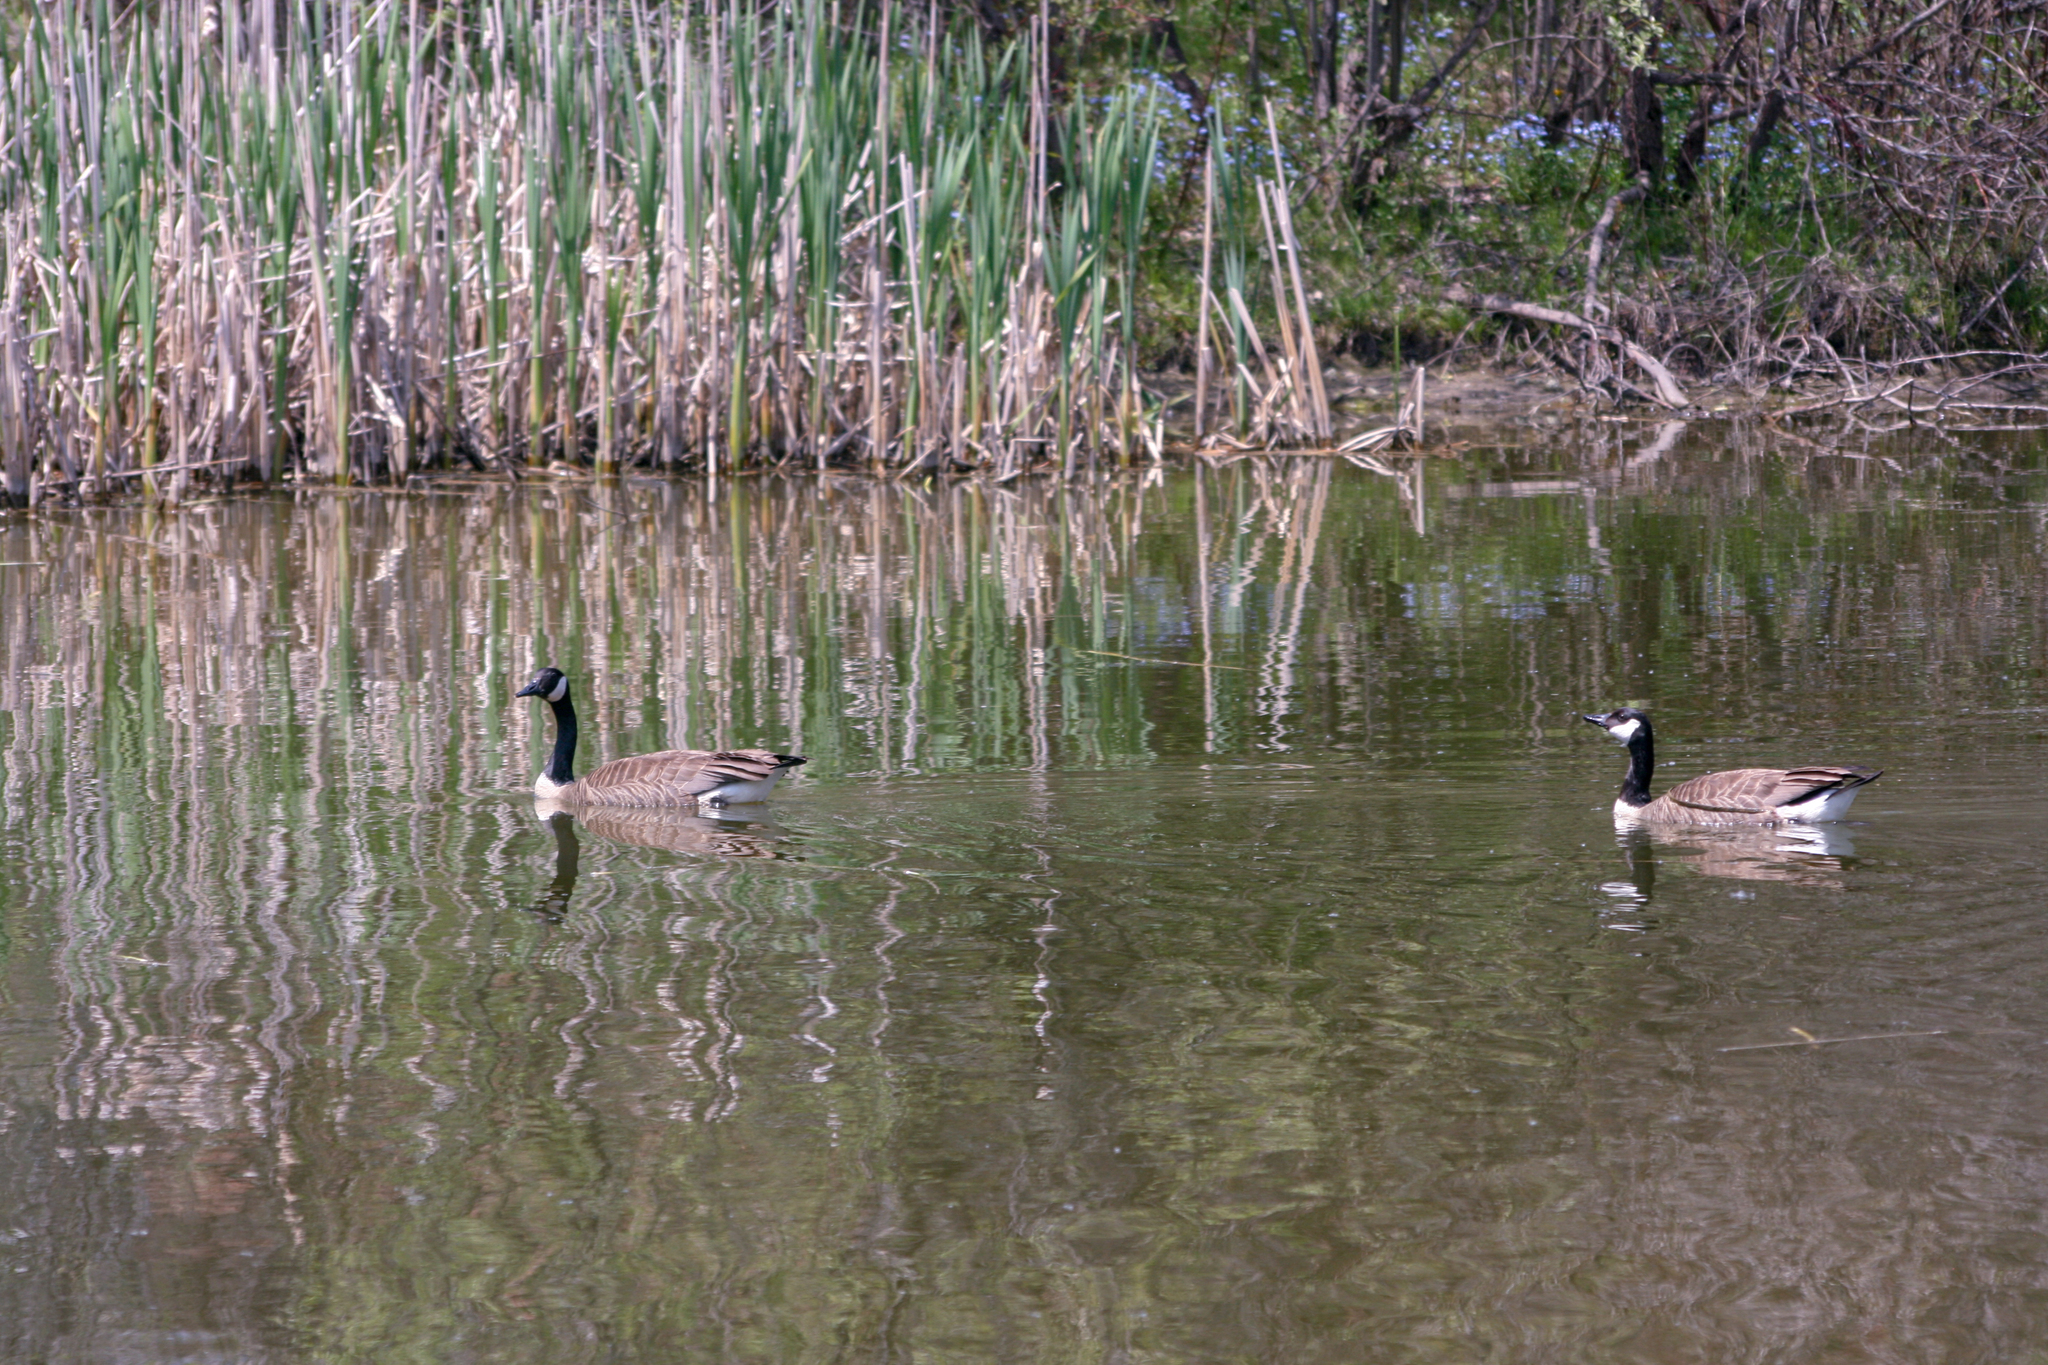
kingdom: Animalia
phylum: Chordata
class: Aves
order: Anseriformes
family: Anatidae
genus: Branta
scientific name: Branta canadensis
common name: Canada goose
